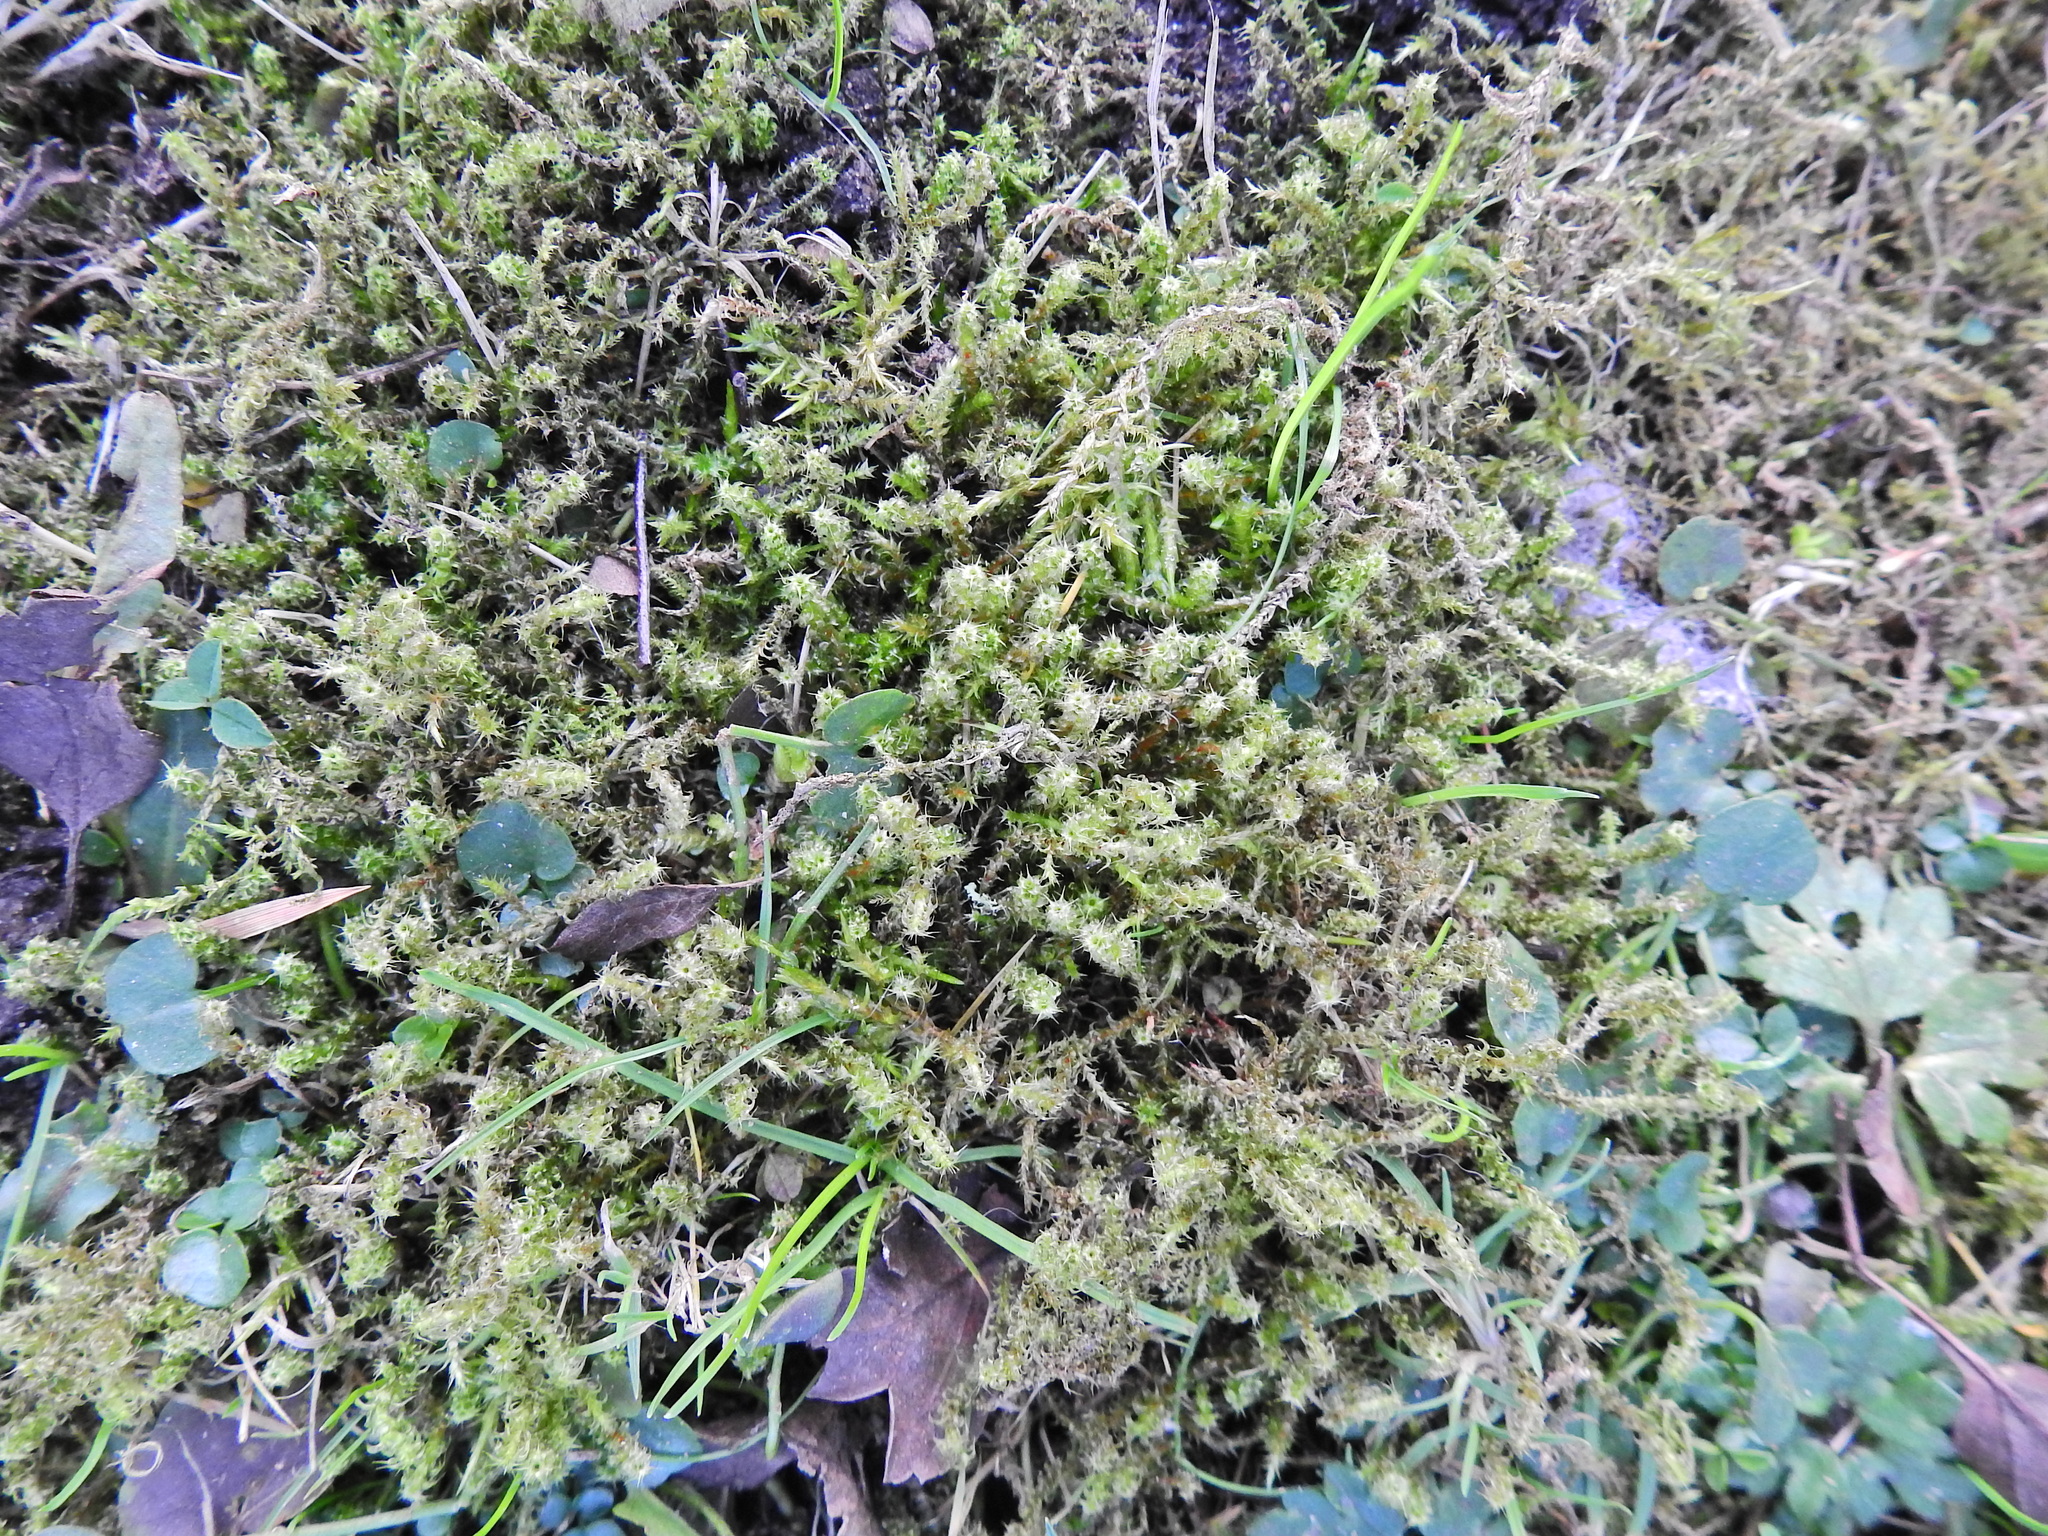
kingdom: Plantae
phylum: Bryophyta
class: Bryopsida
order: Hypnales
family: Hylocomiaceae
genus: Rhytidiadelphus
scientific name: Rhytidiadelphus squarrosus
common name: Springy turf-moss
